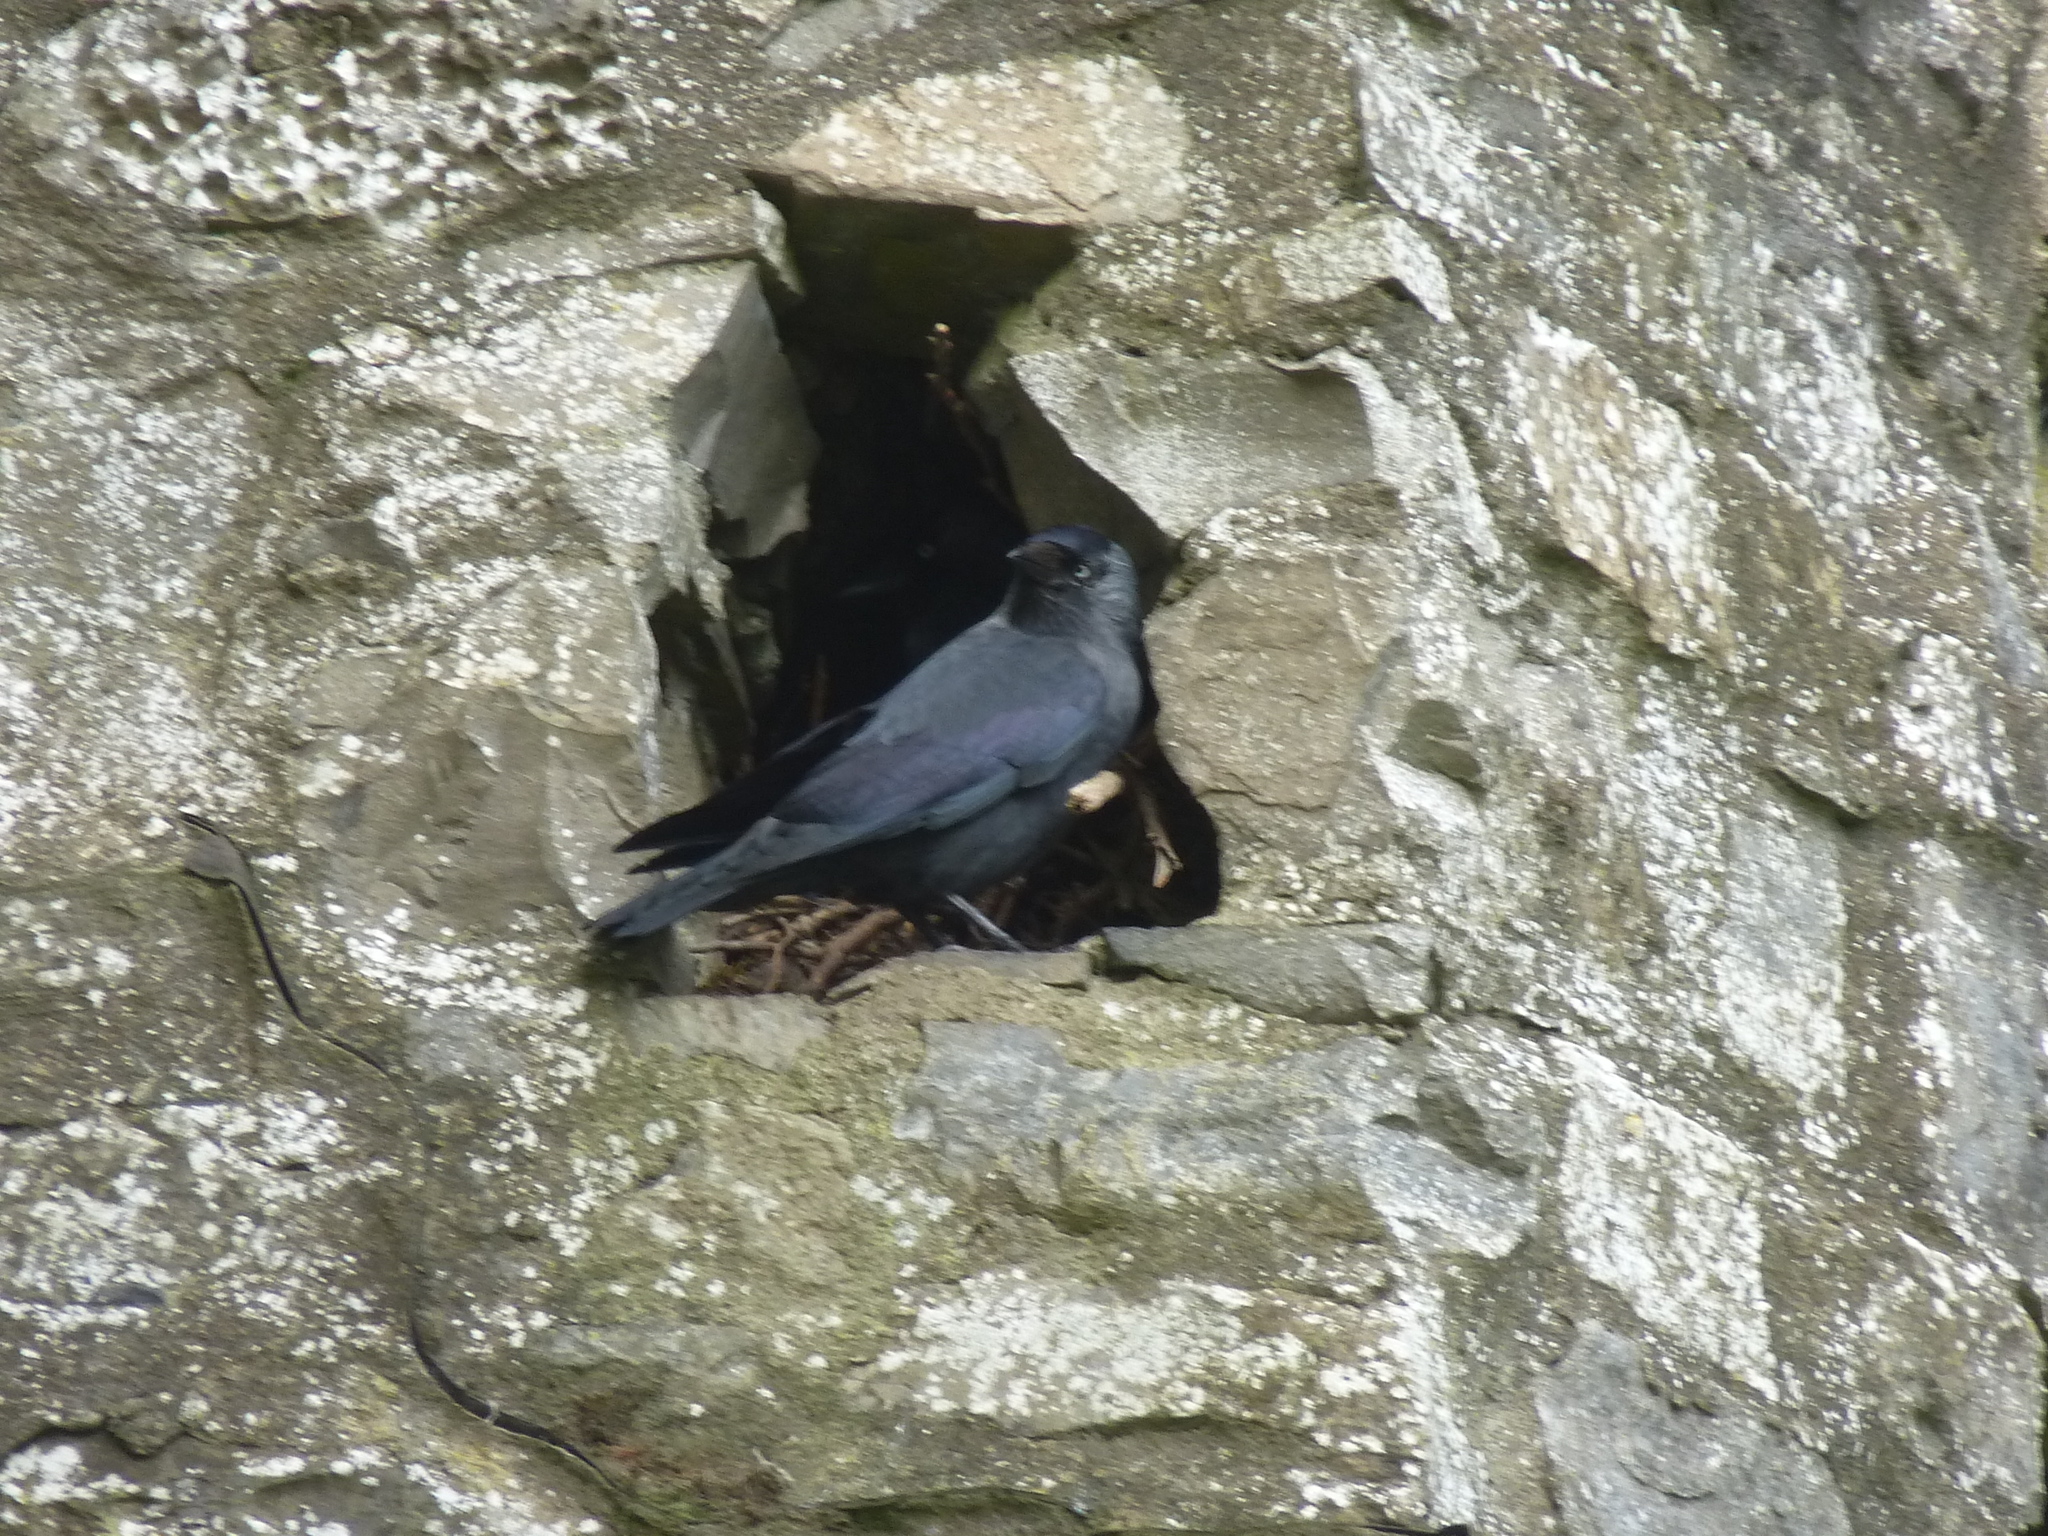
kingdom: Animalia
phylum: Chordata
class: Aves
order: Passeriformes
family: Corvidae
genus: Coloeus
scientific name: Coloeus monedula
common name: Western jackdaw
